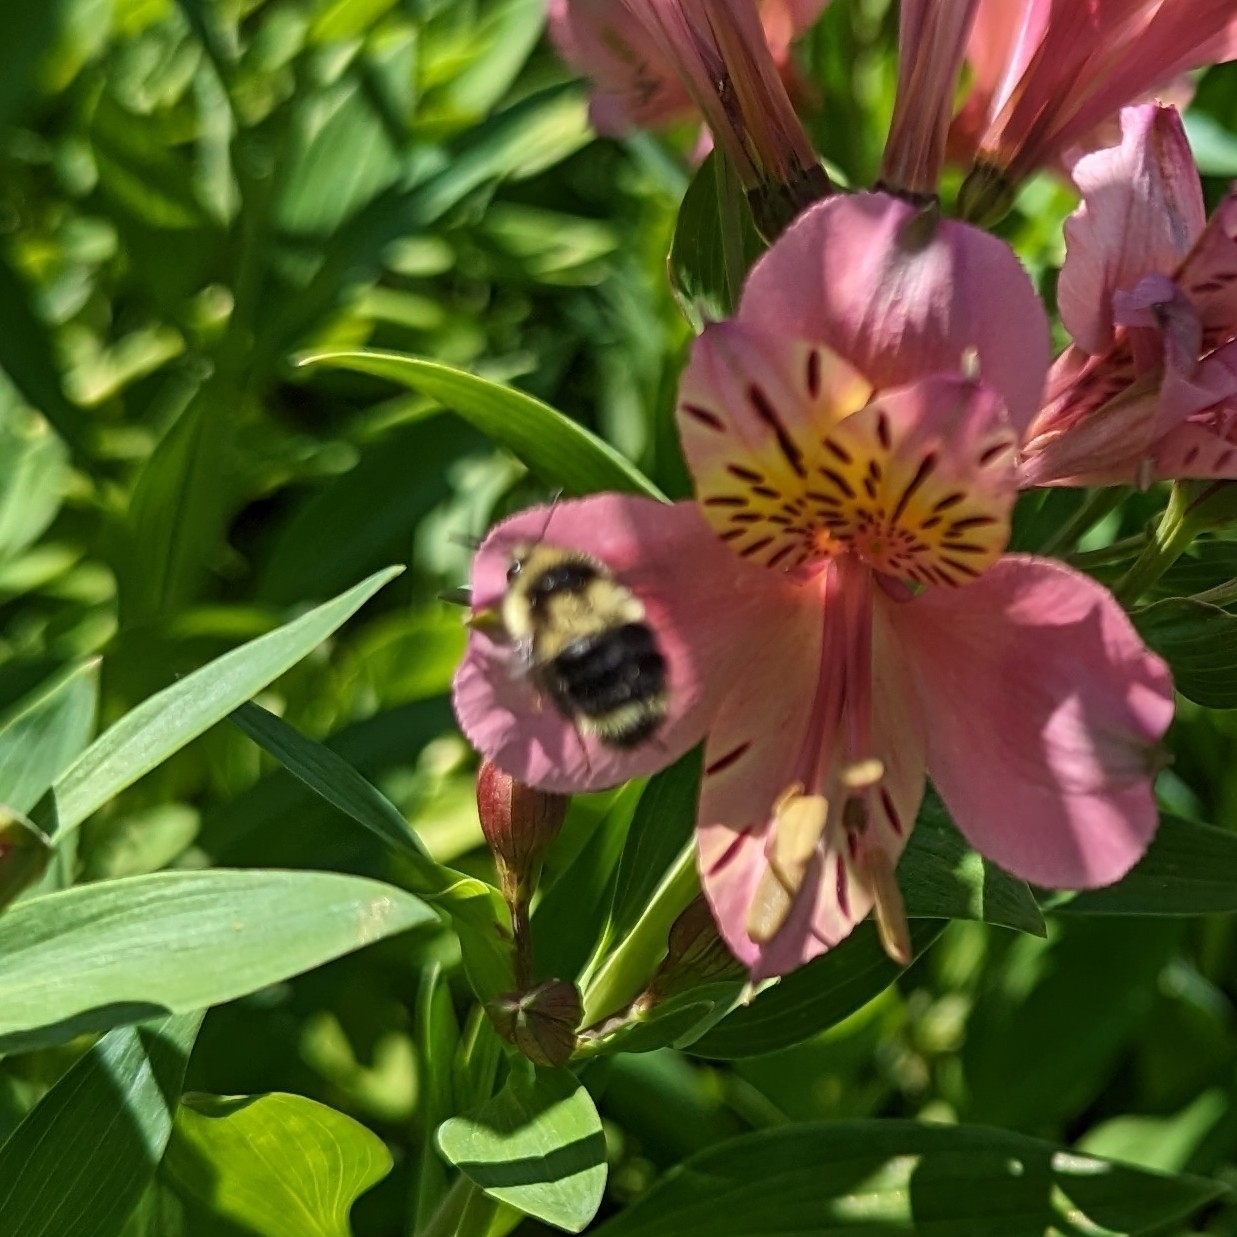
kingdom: Animalia
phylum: Arthropoda
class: Insecta
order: Hymenoptera
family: Apidae
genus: Bombus
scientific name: Bombus melanopygus
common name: Black tail bumble bee
